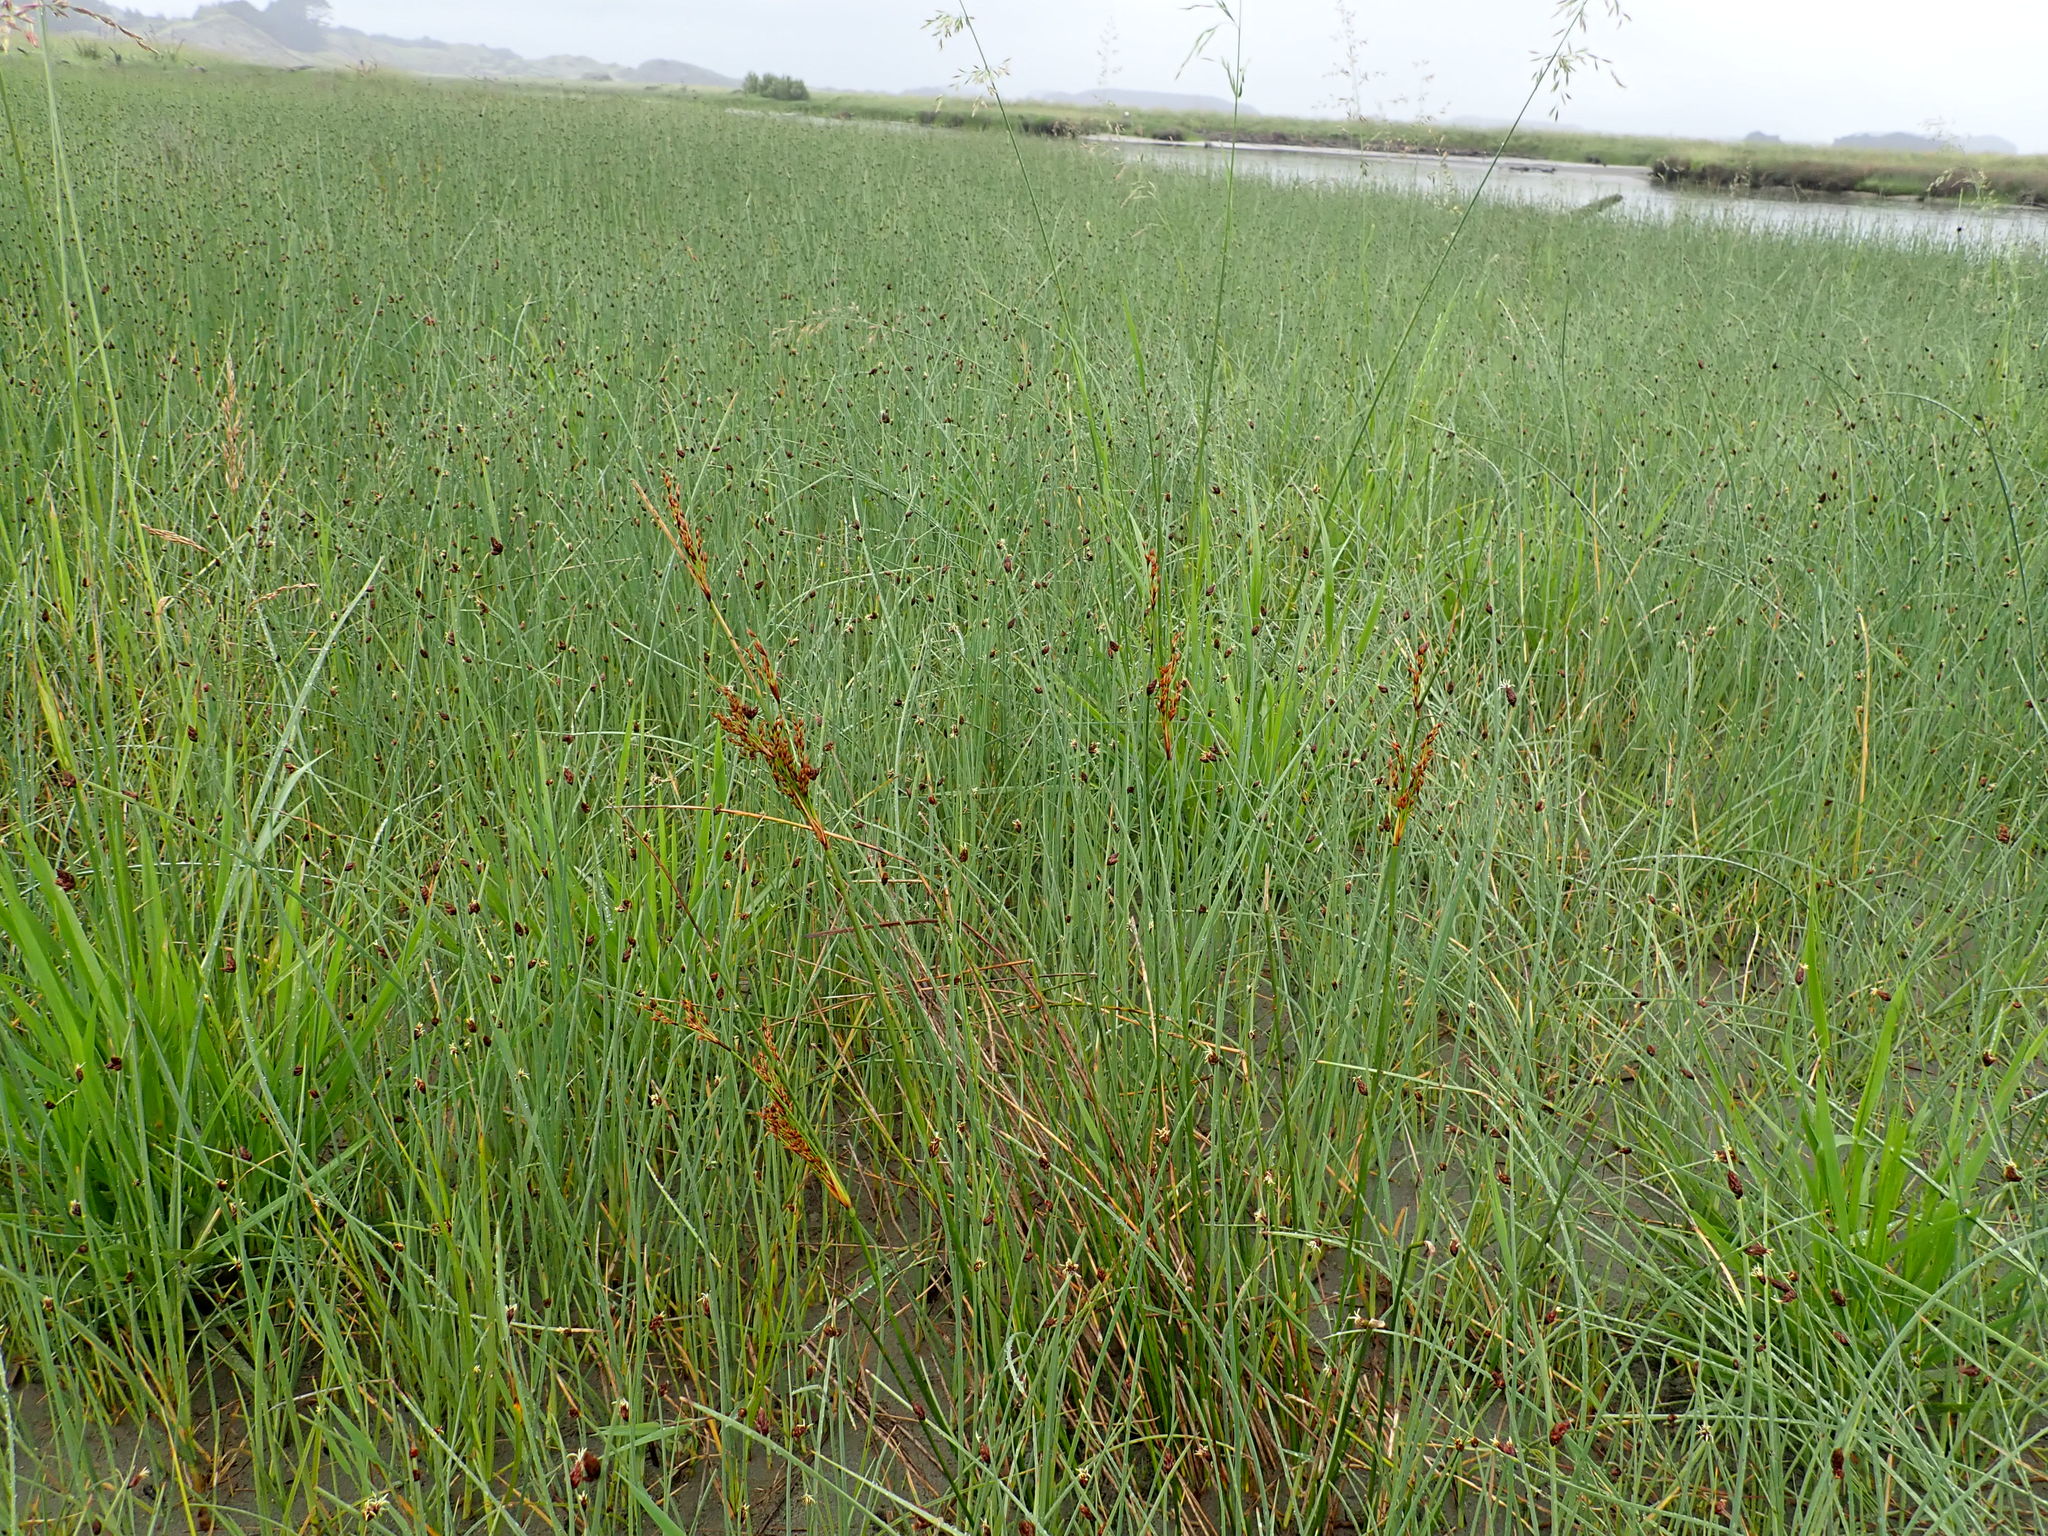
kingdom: Plantae
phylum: Tracheophyta
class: Liliopsida
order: Poales
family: Juncaceae
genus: Juncus
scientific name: Juncus kraussii
